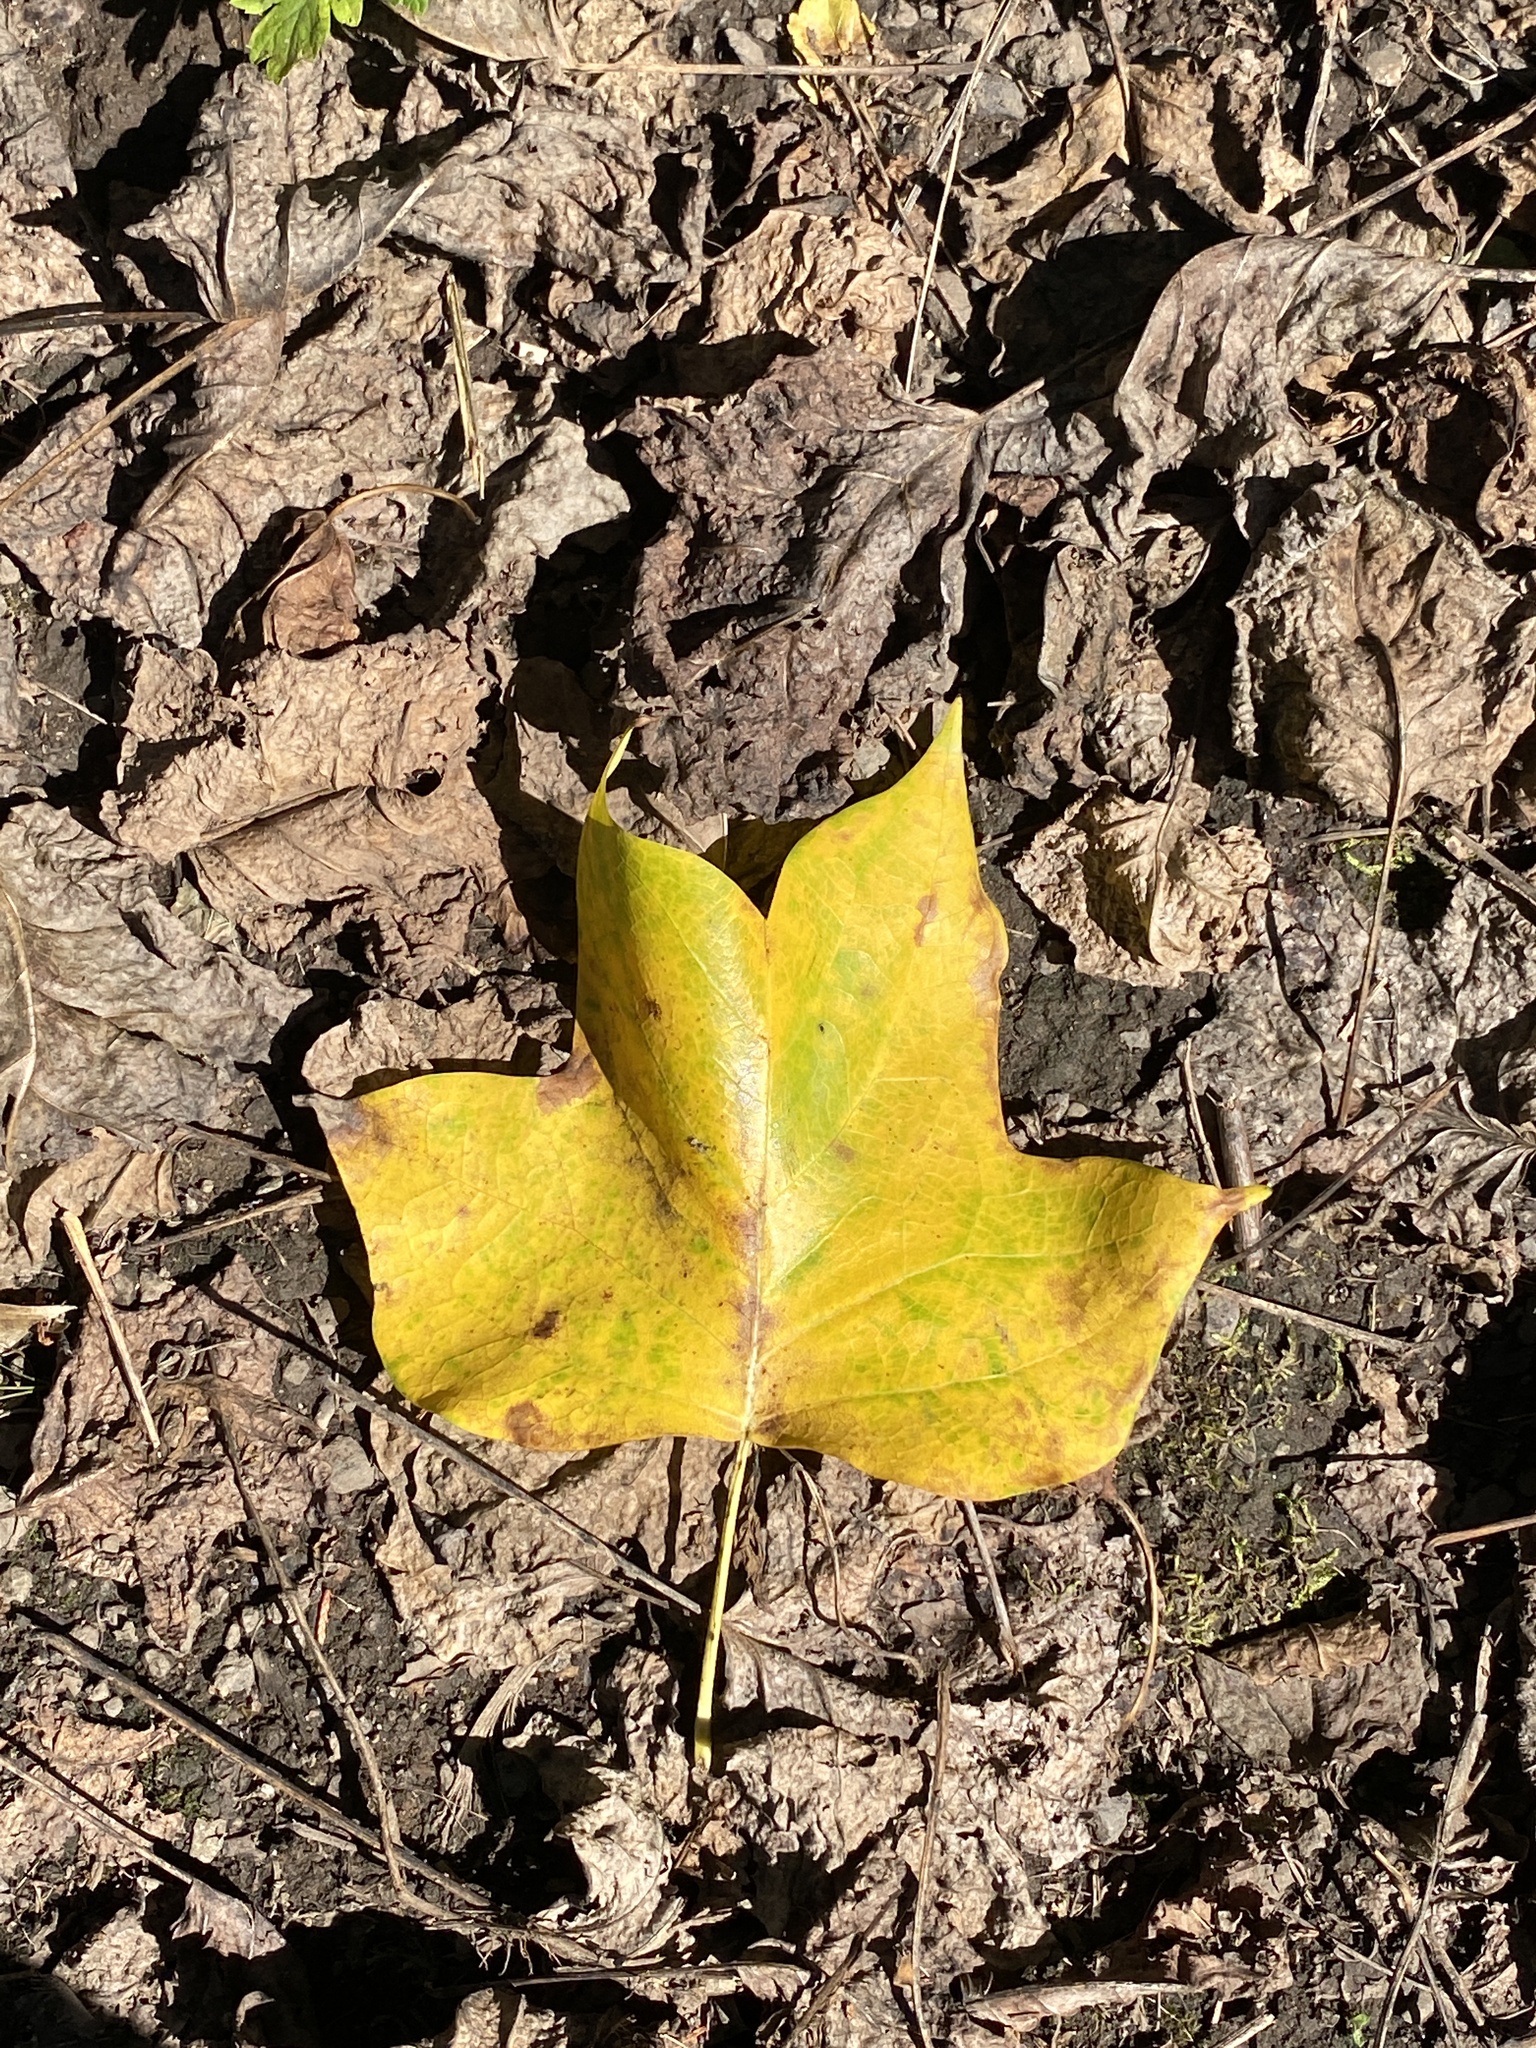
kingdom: Plantae
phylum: Tracheophyta
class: Magnoliopsida
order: Magnoliales
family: Magnoliaceae
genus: Liriodendron
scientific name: Liriodendron tulipifera
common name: Tulip tree
